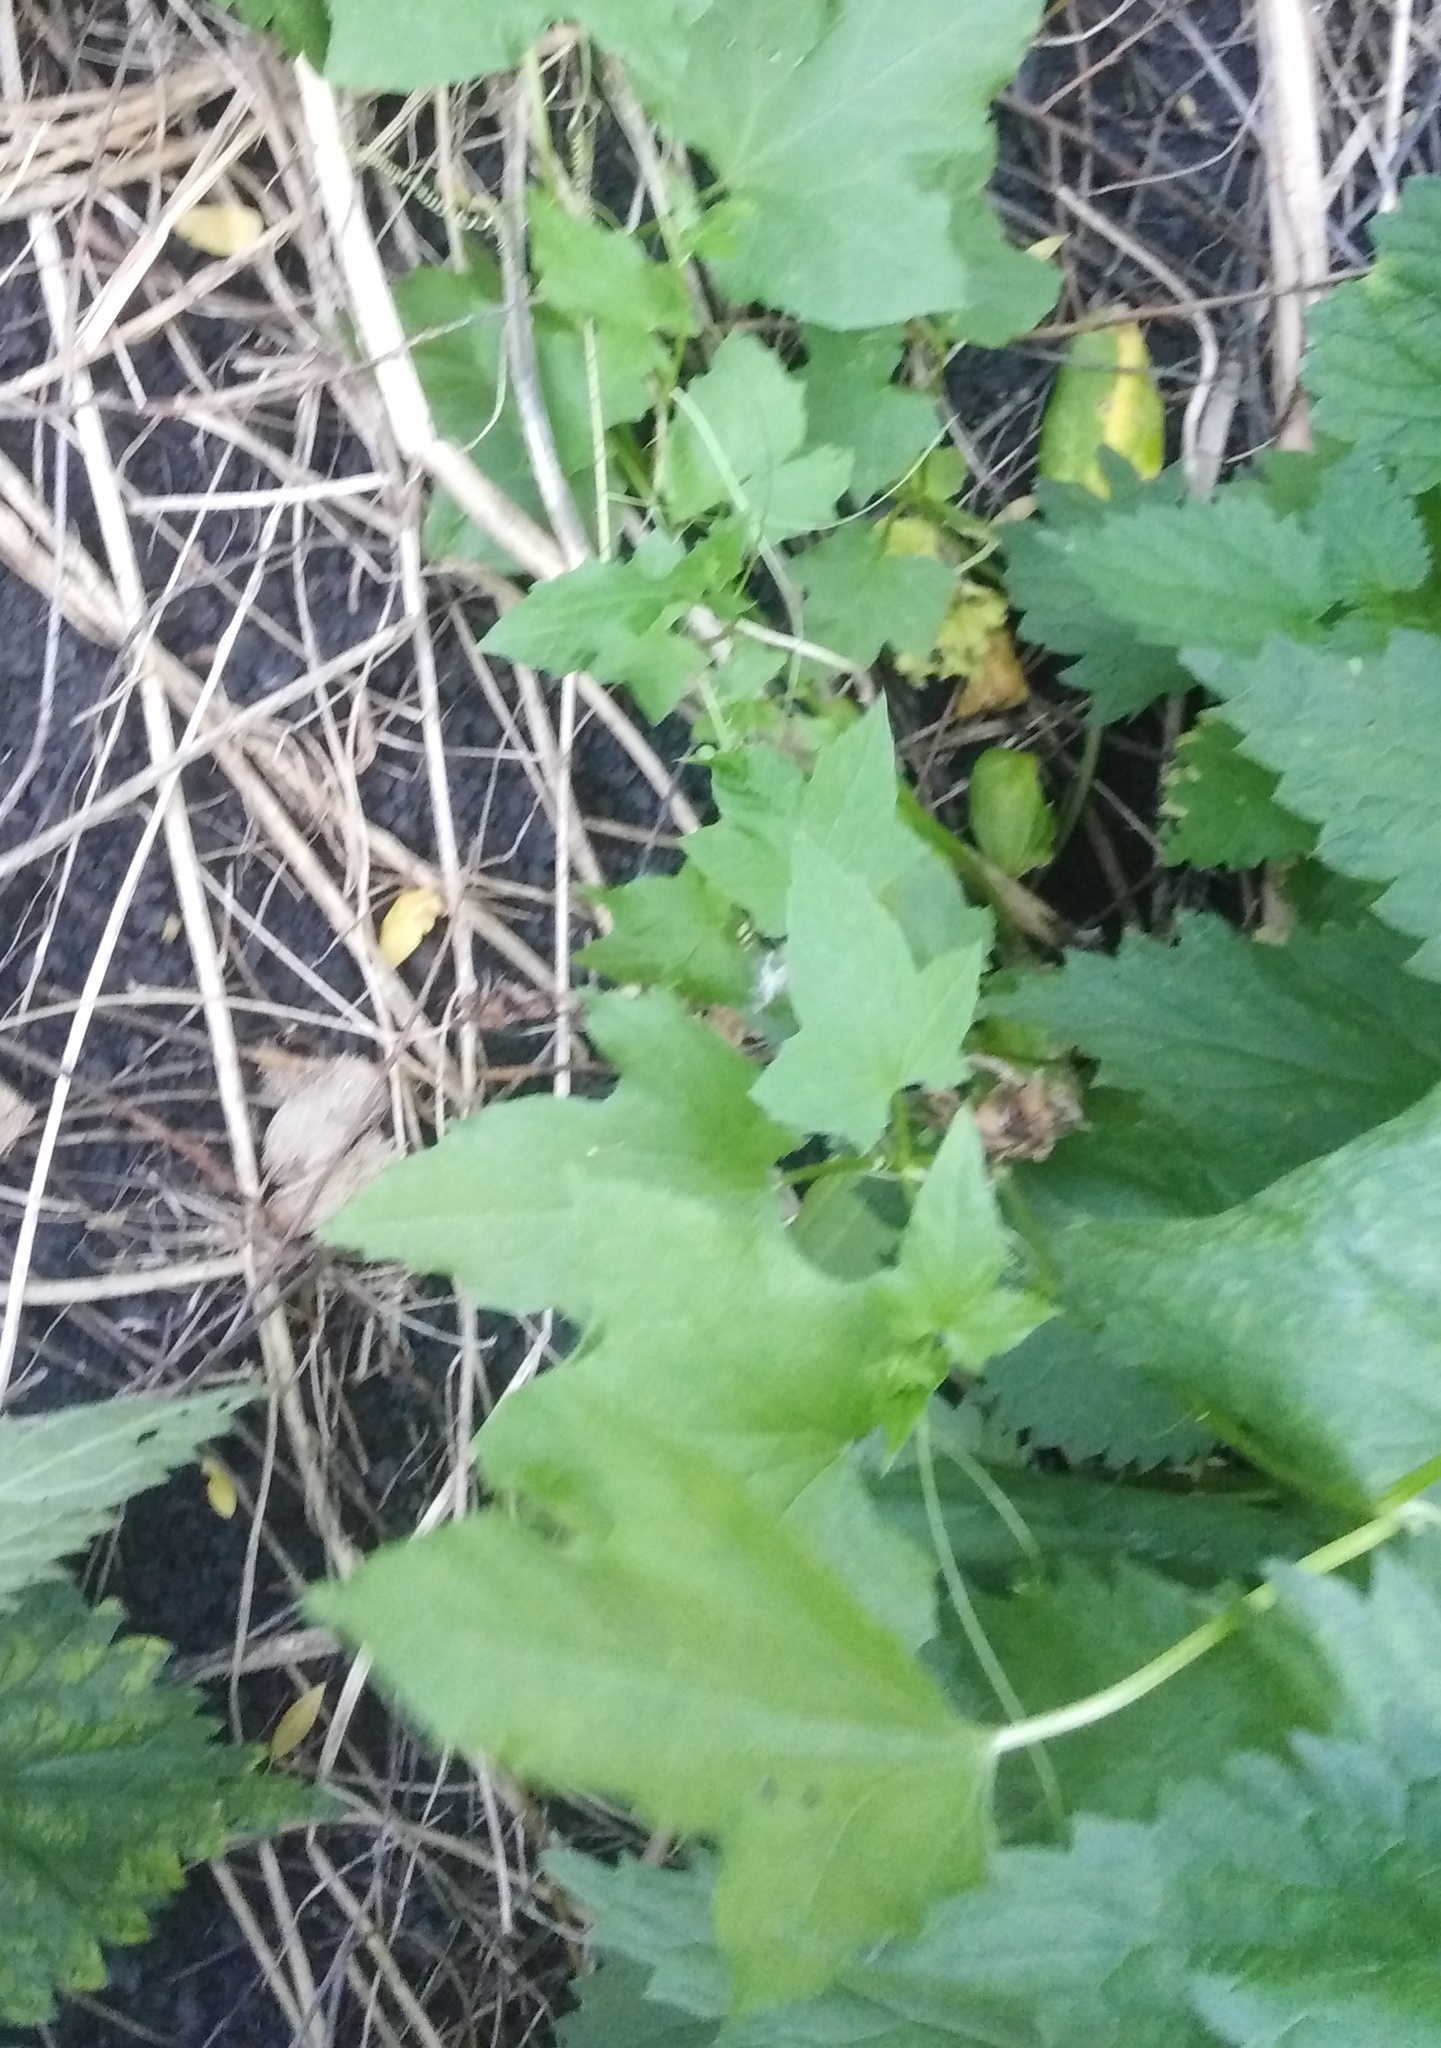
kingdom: Plantae
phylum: Tracheophyta
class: Magnoliopsida
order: Cucurbitales
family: Cucurbitaceae
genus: Bryonia
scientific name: Bryonia alba
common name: White bryony
